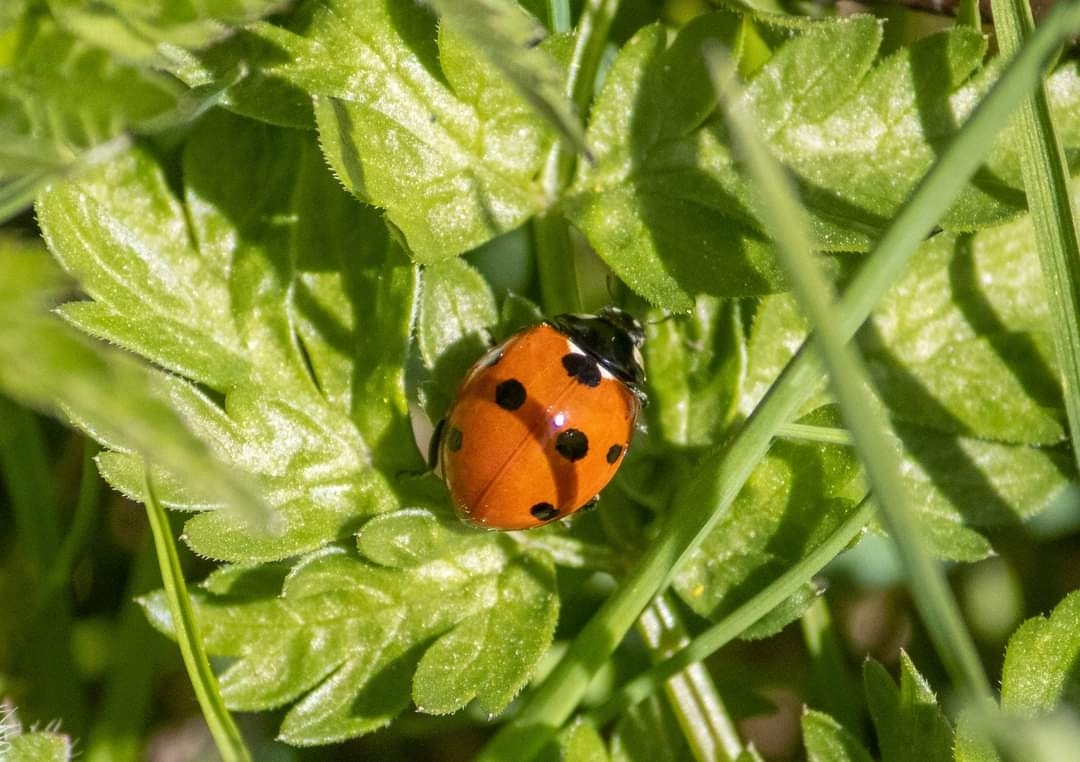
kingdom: Animalia
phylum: Arthropoda
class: Insecta
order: Coleoptera
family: Coccinellidae
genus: Coccinella
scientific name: Coccinella septempunctata
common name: Sevenspotted lady beetle
